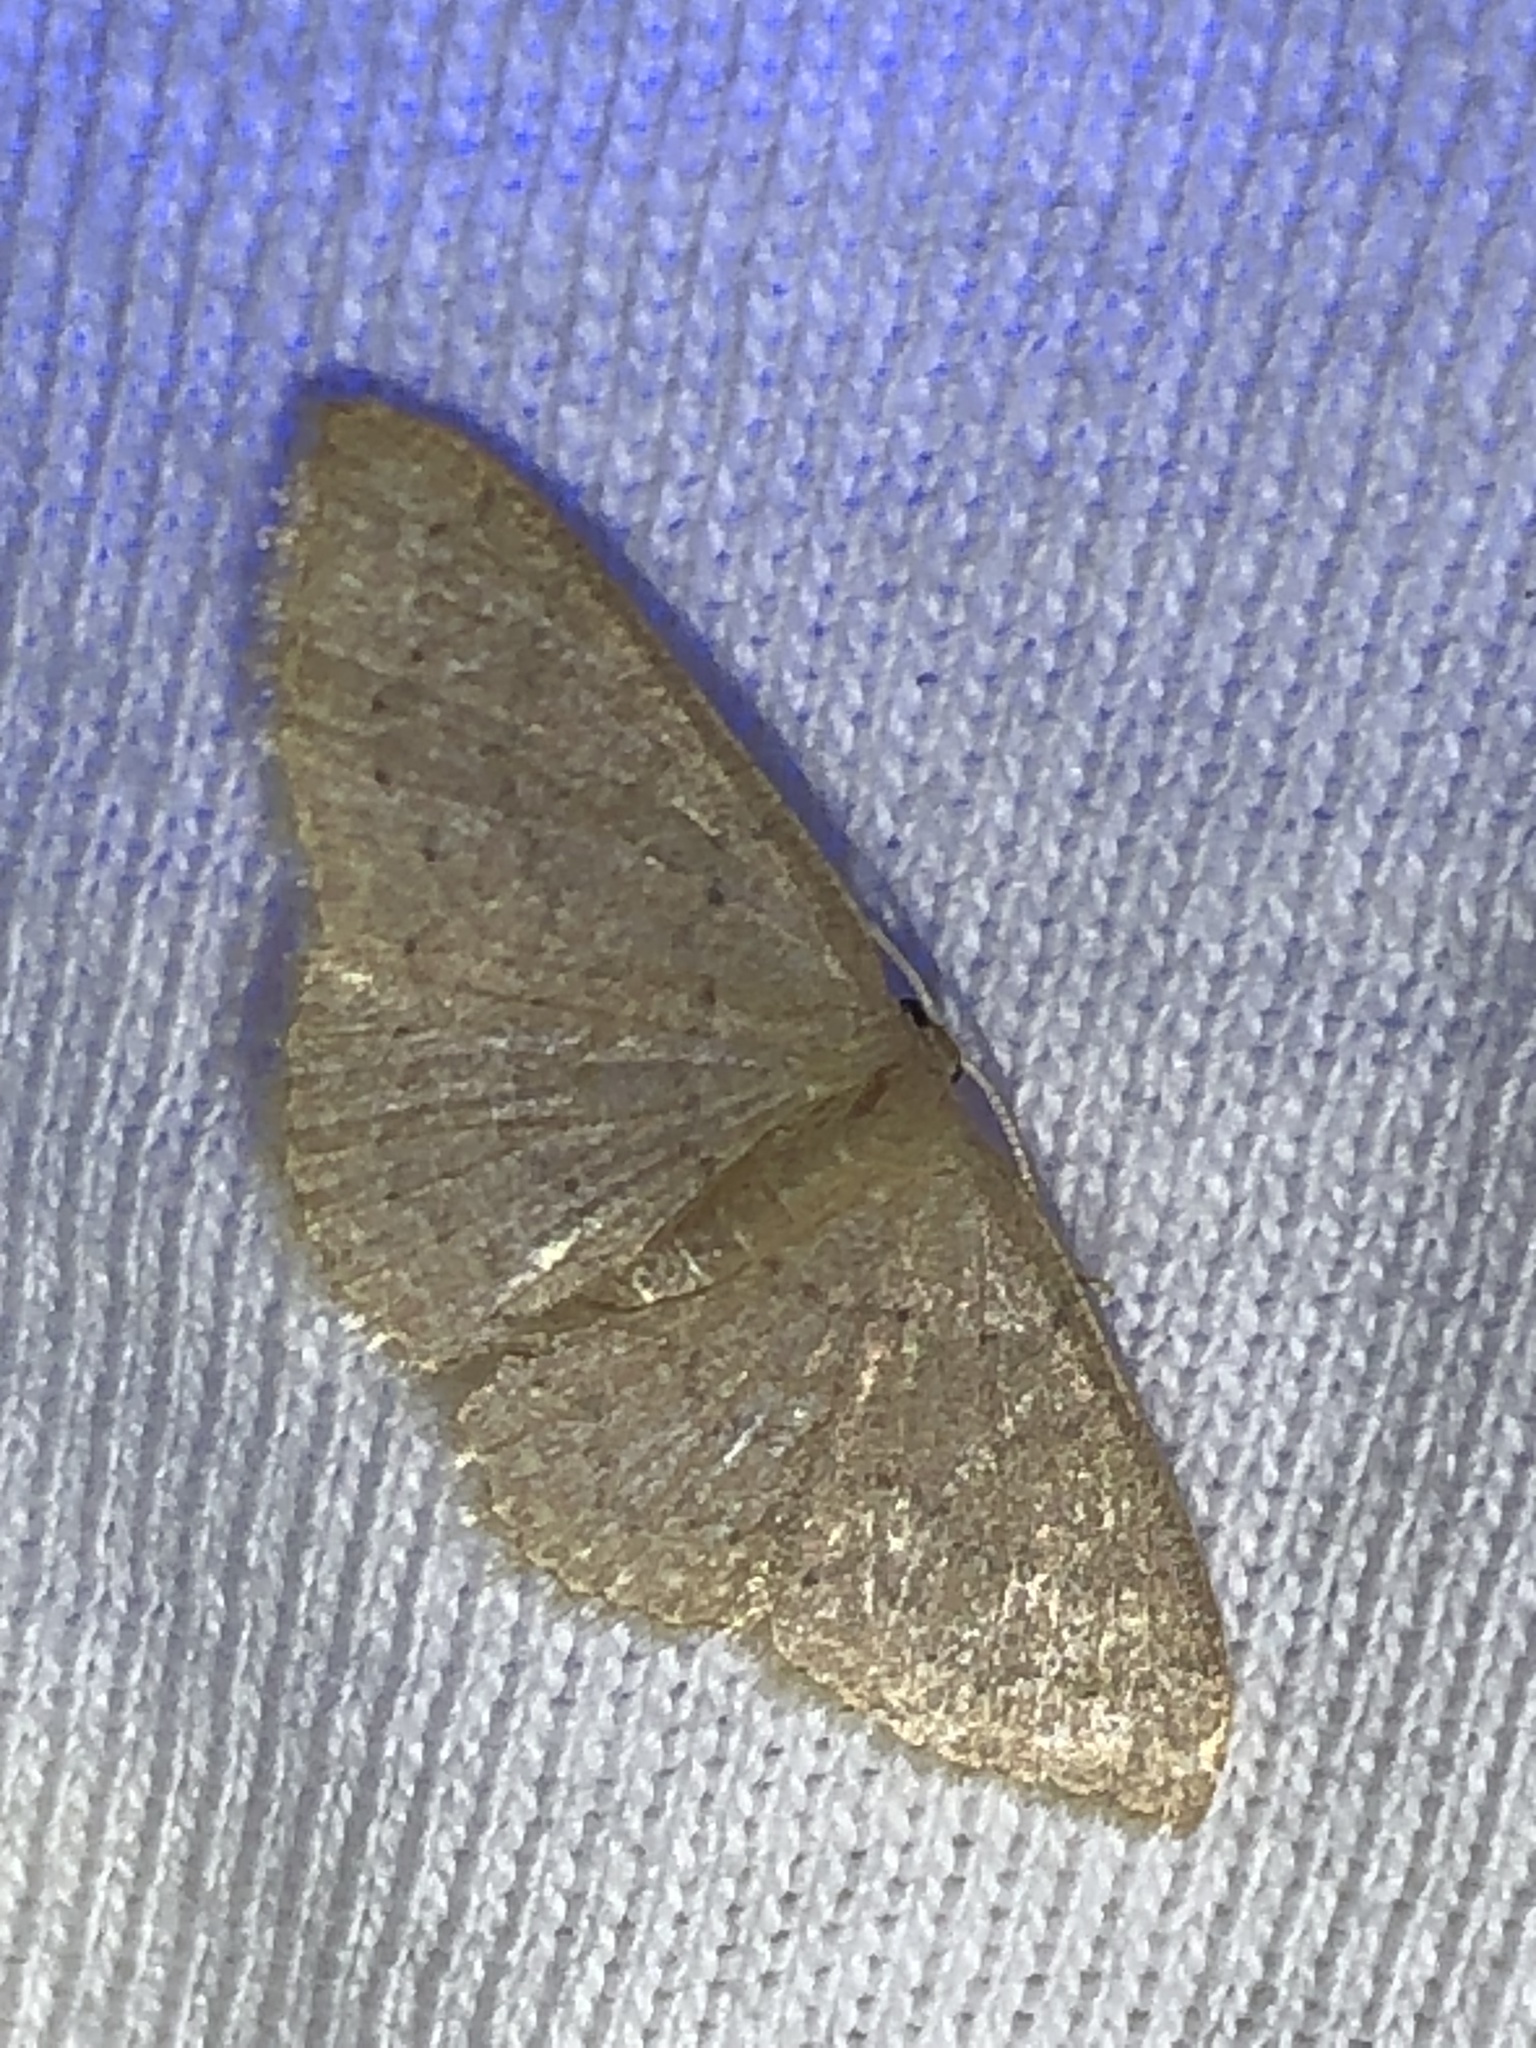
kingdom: Animalia
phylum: Arthropoda
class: Insecta
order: Lepidoptera
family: Geometridae
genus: Pleuroprucha
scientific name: Pleuroprucha insulsaria
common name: Common tan wave
